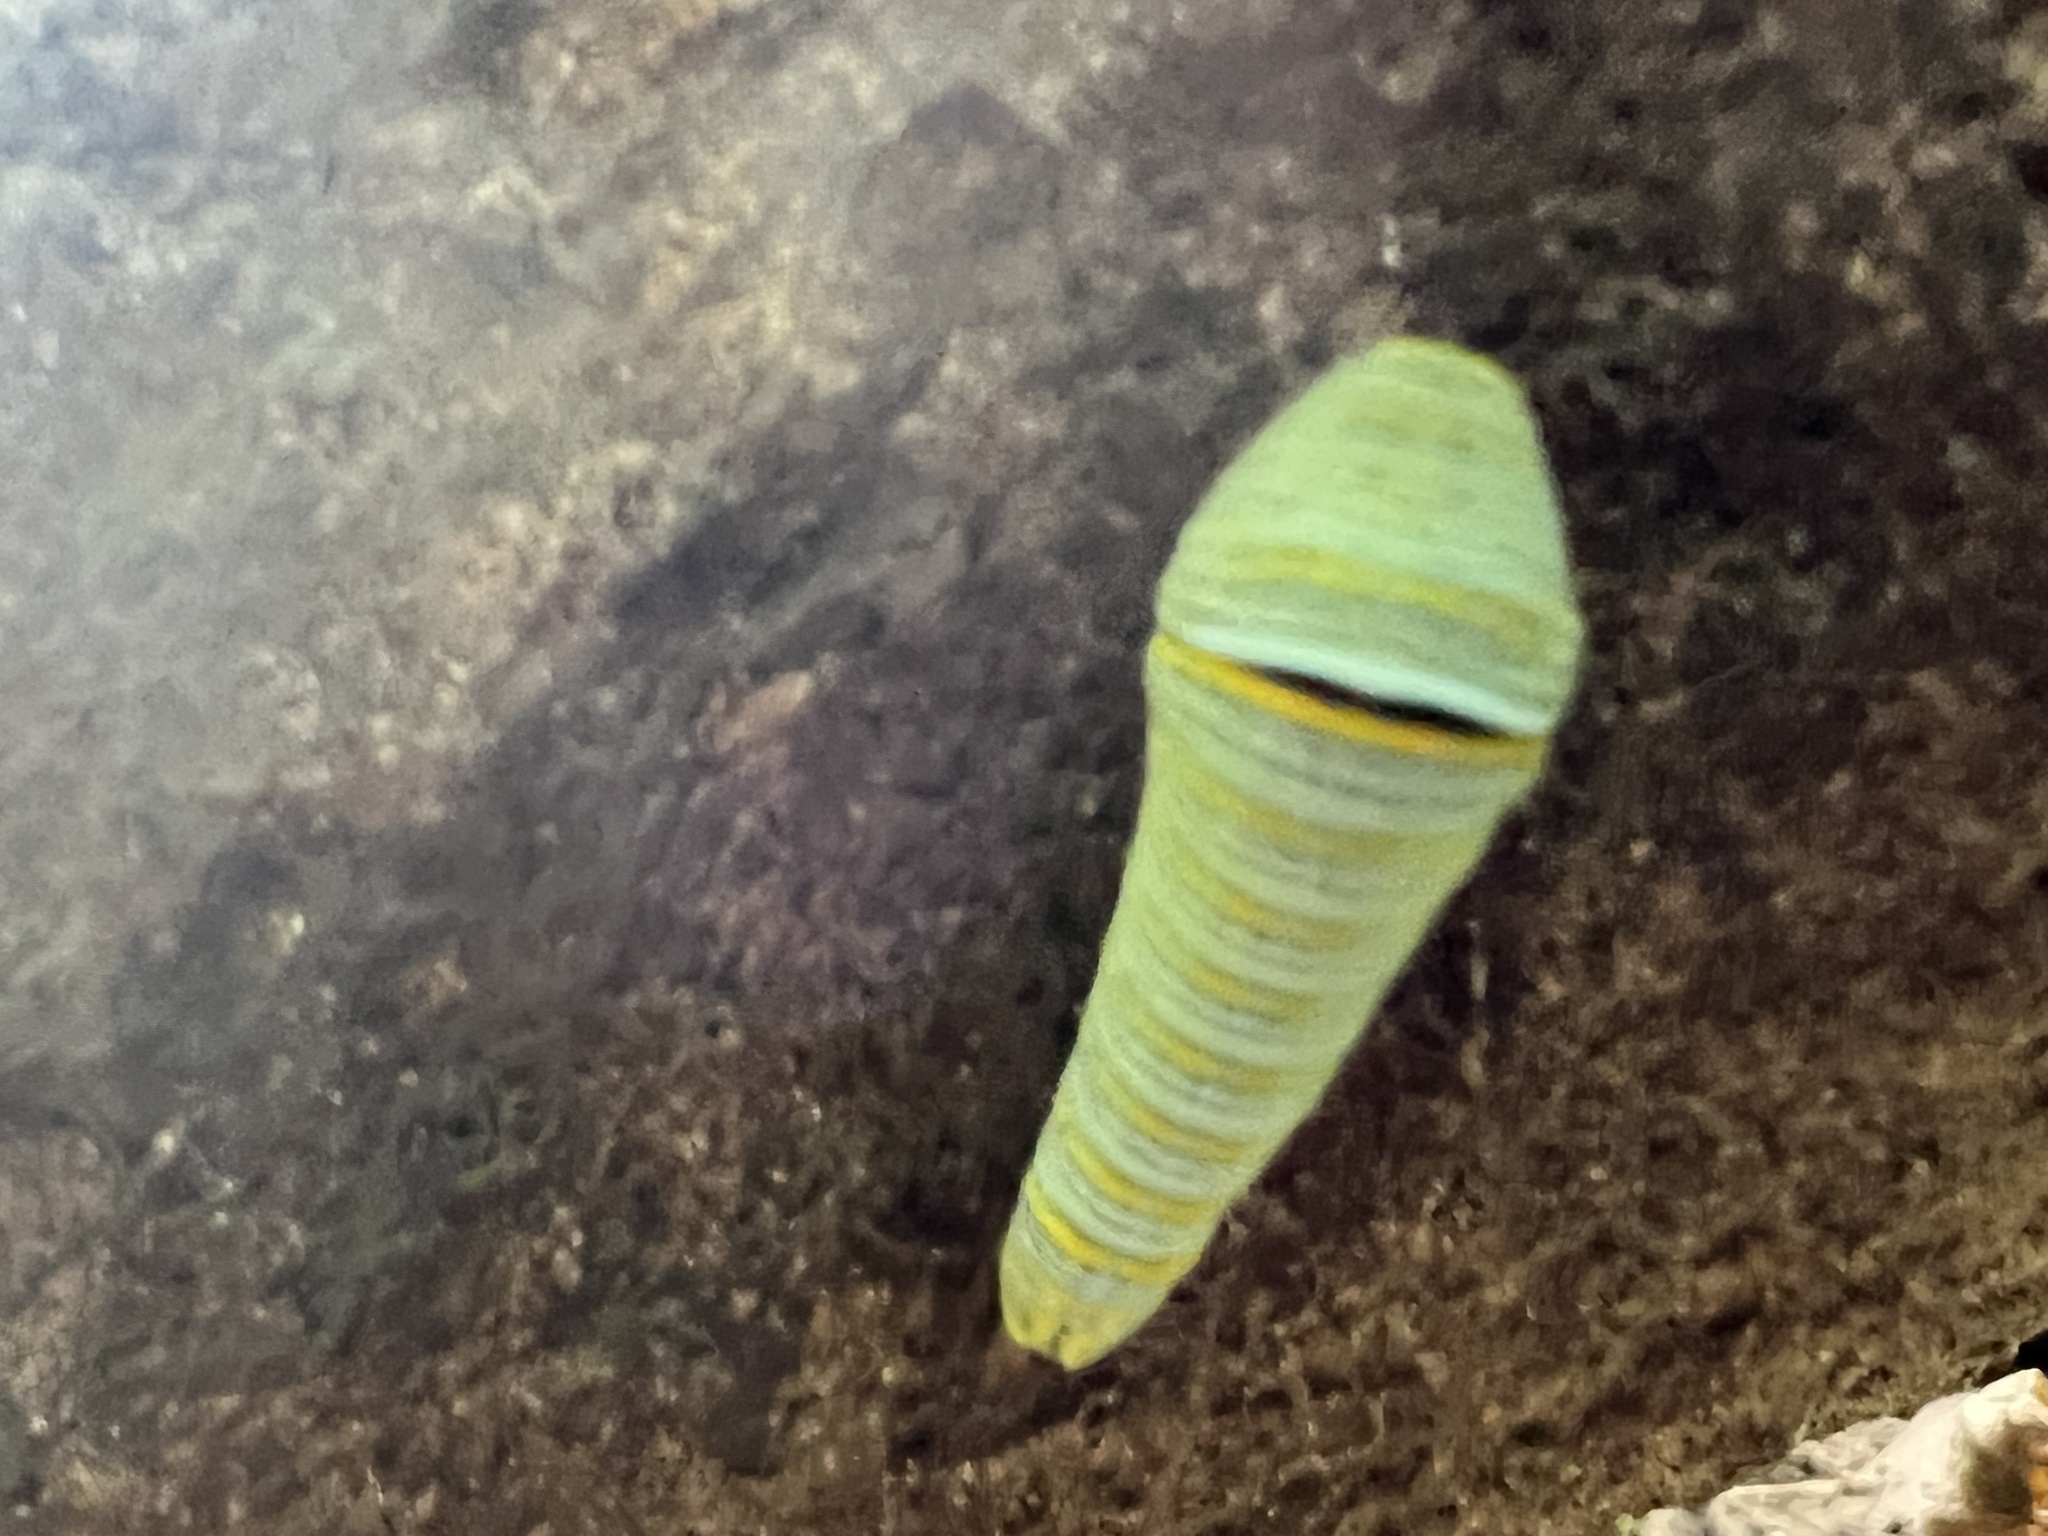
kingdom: Animalia
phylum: Arthropoda
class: Insecta
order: Lepidoptera
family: Papilionidae
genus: Protographium
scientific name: Protographium marcellus
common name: Zebra swallowtail
